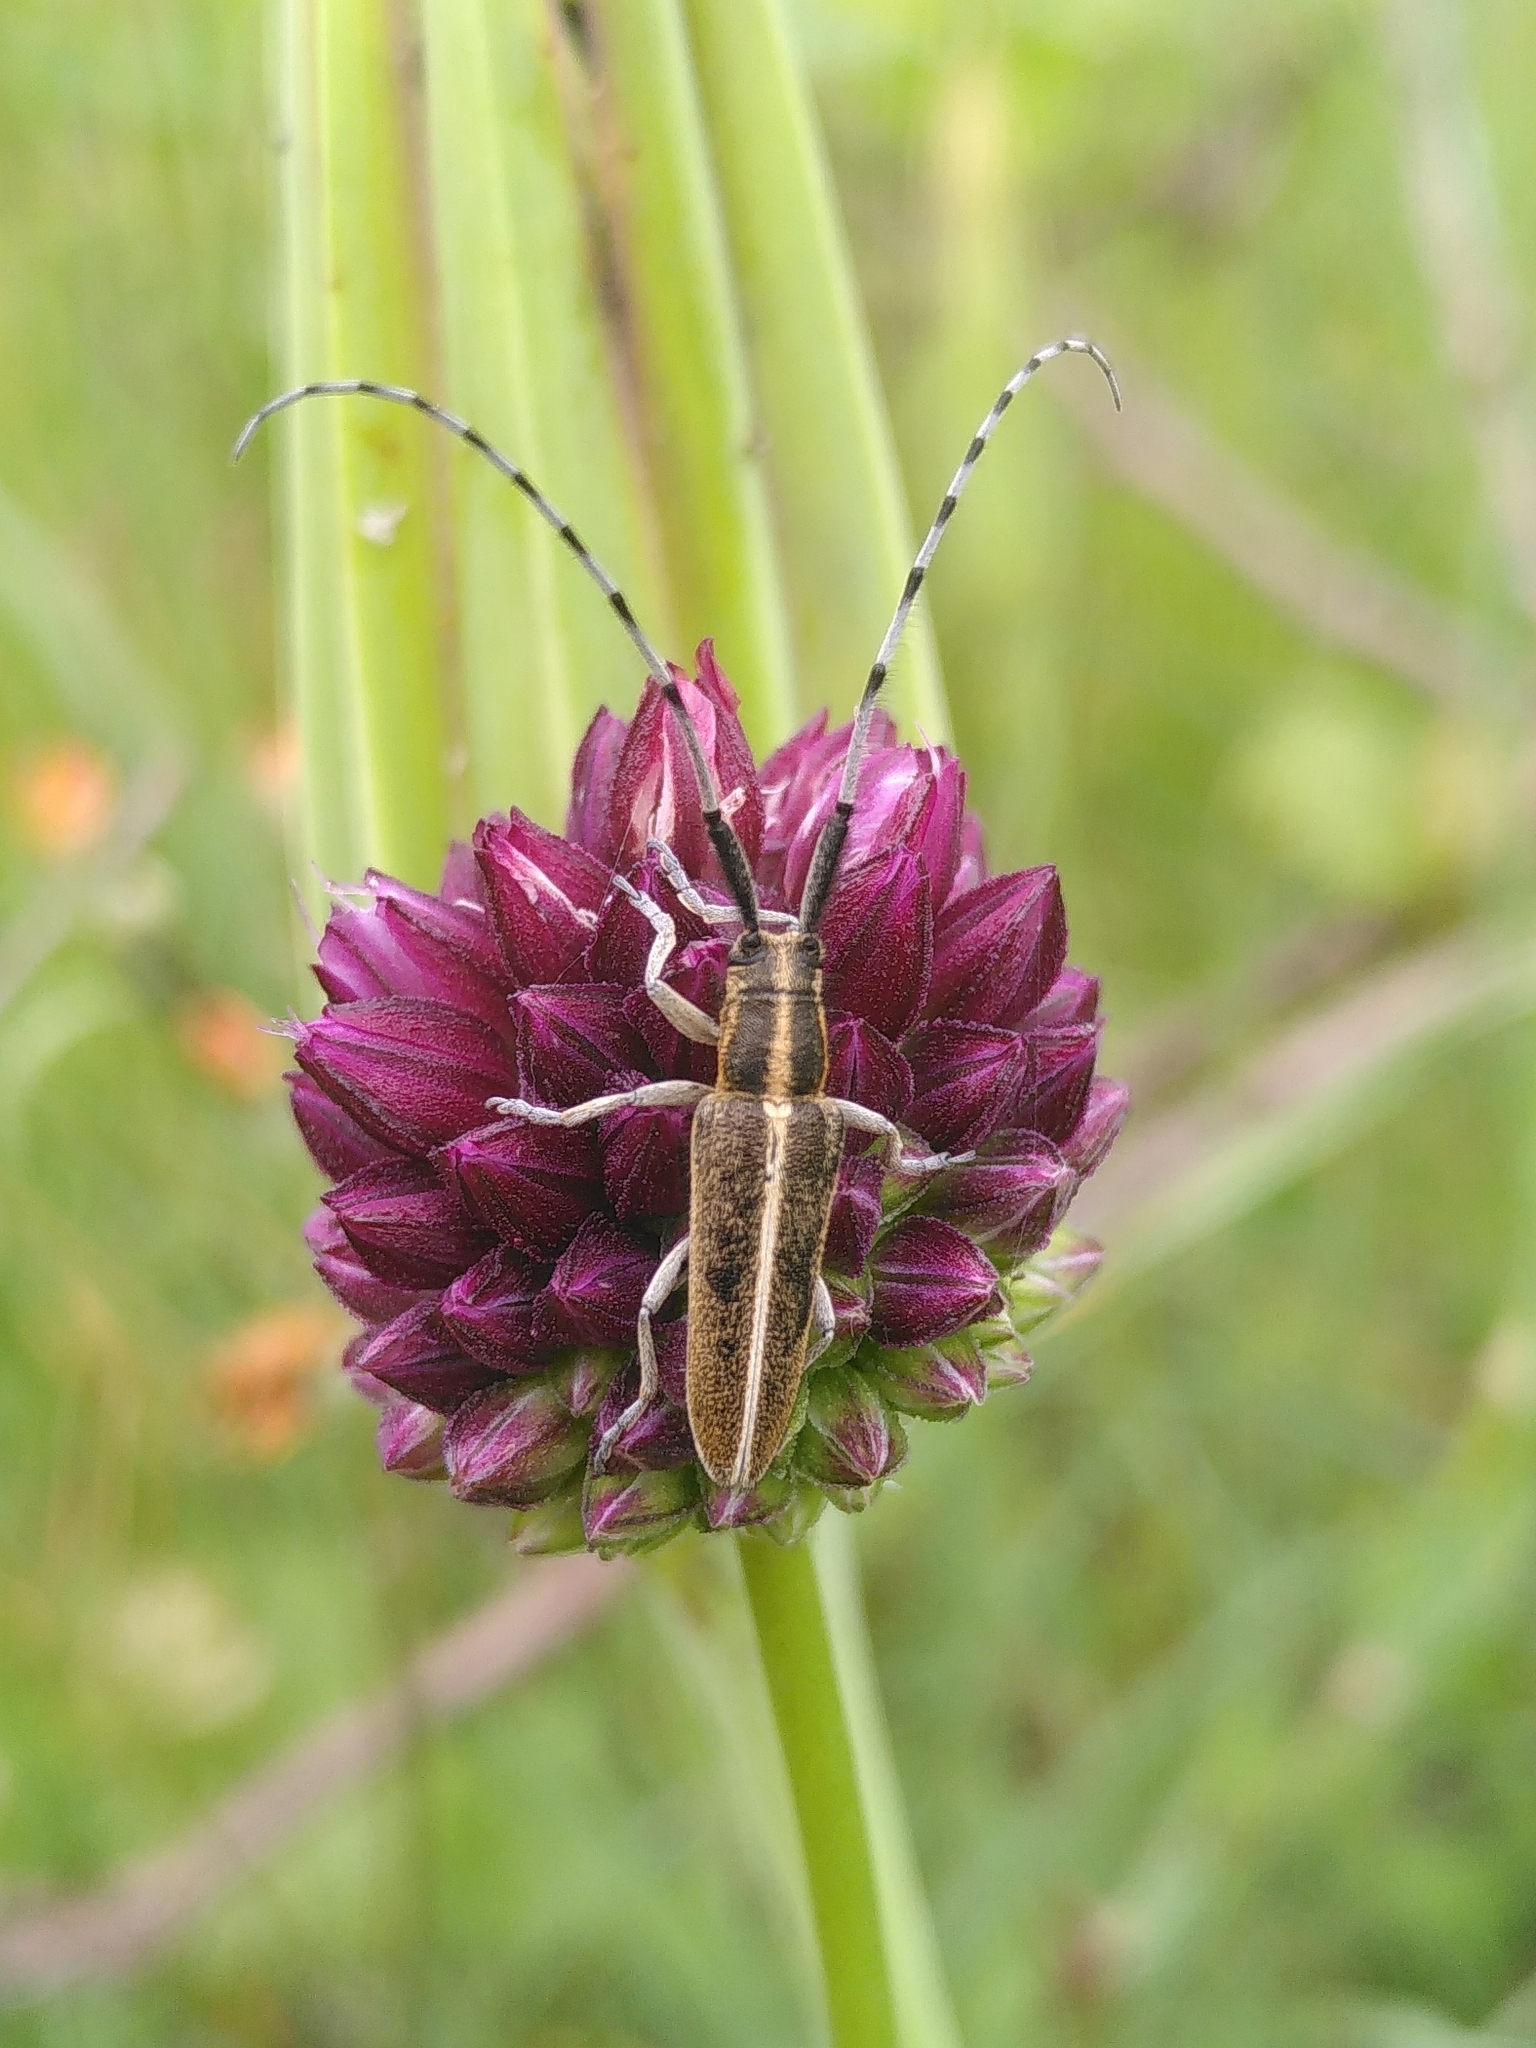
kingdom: Animalia
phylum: Arthropoda
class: Insecta
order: Coleoptera
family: Cerambycidae
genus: Agapanthia
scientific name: Agapanthia suturalis
